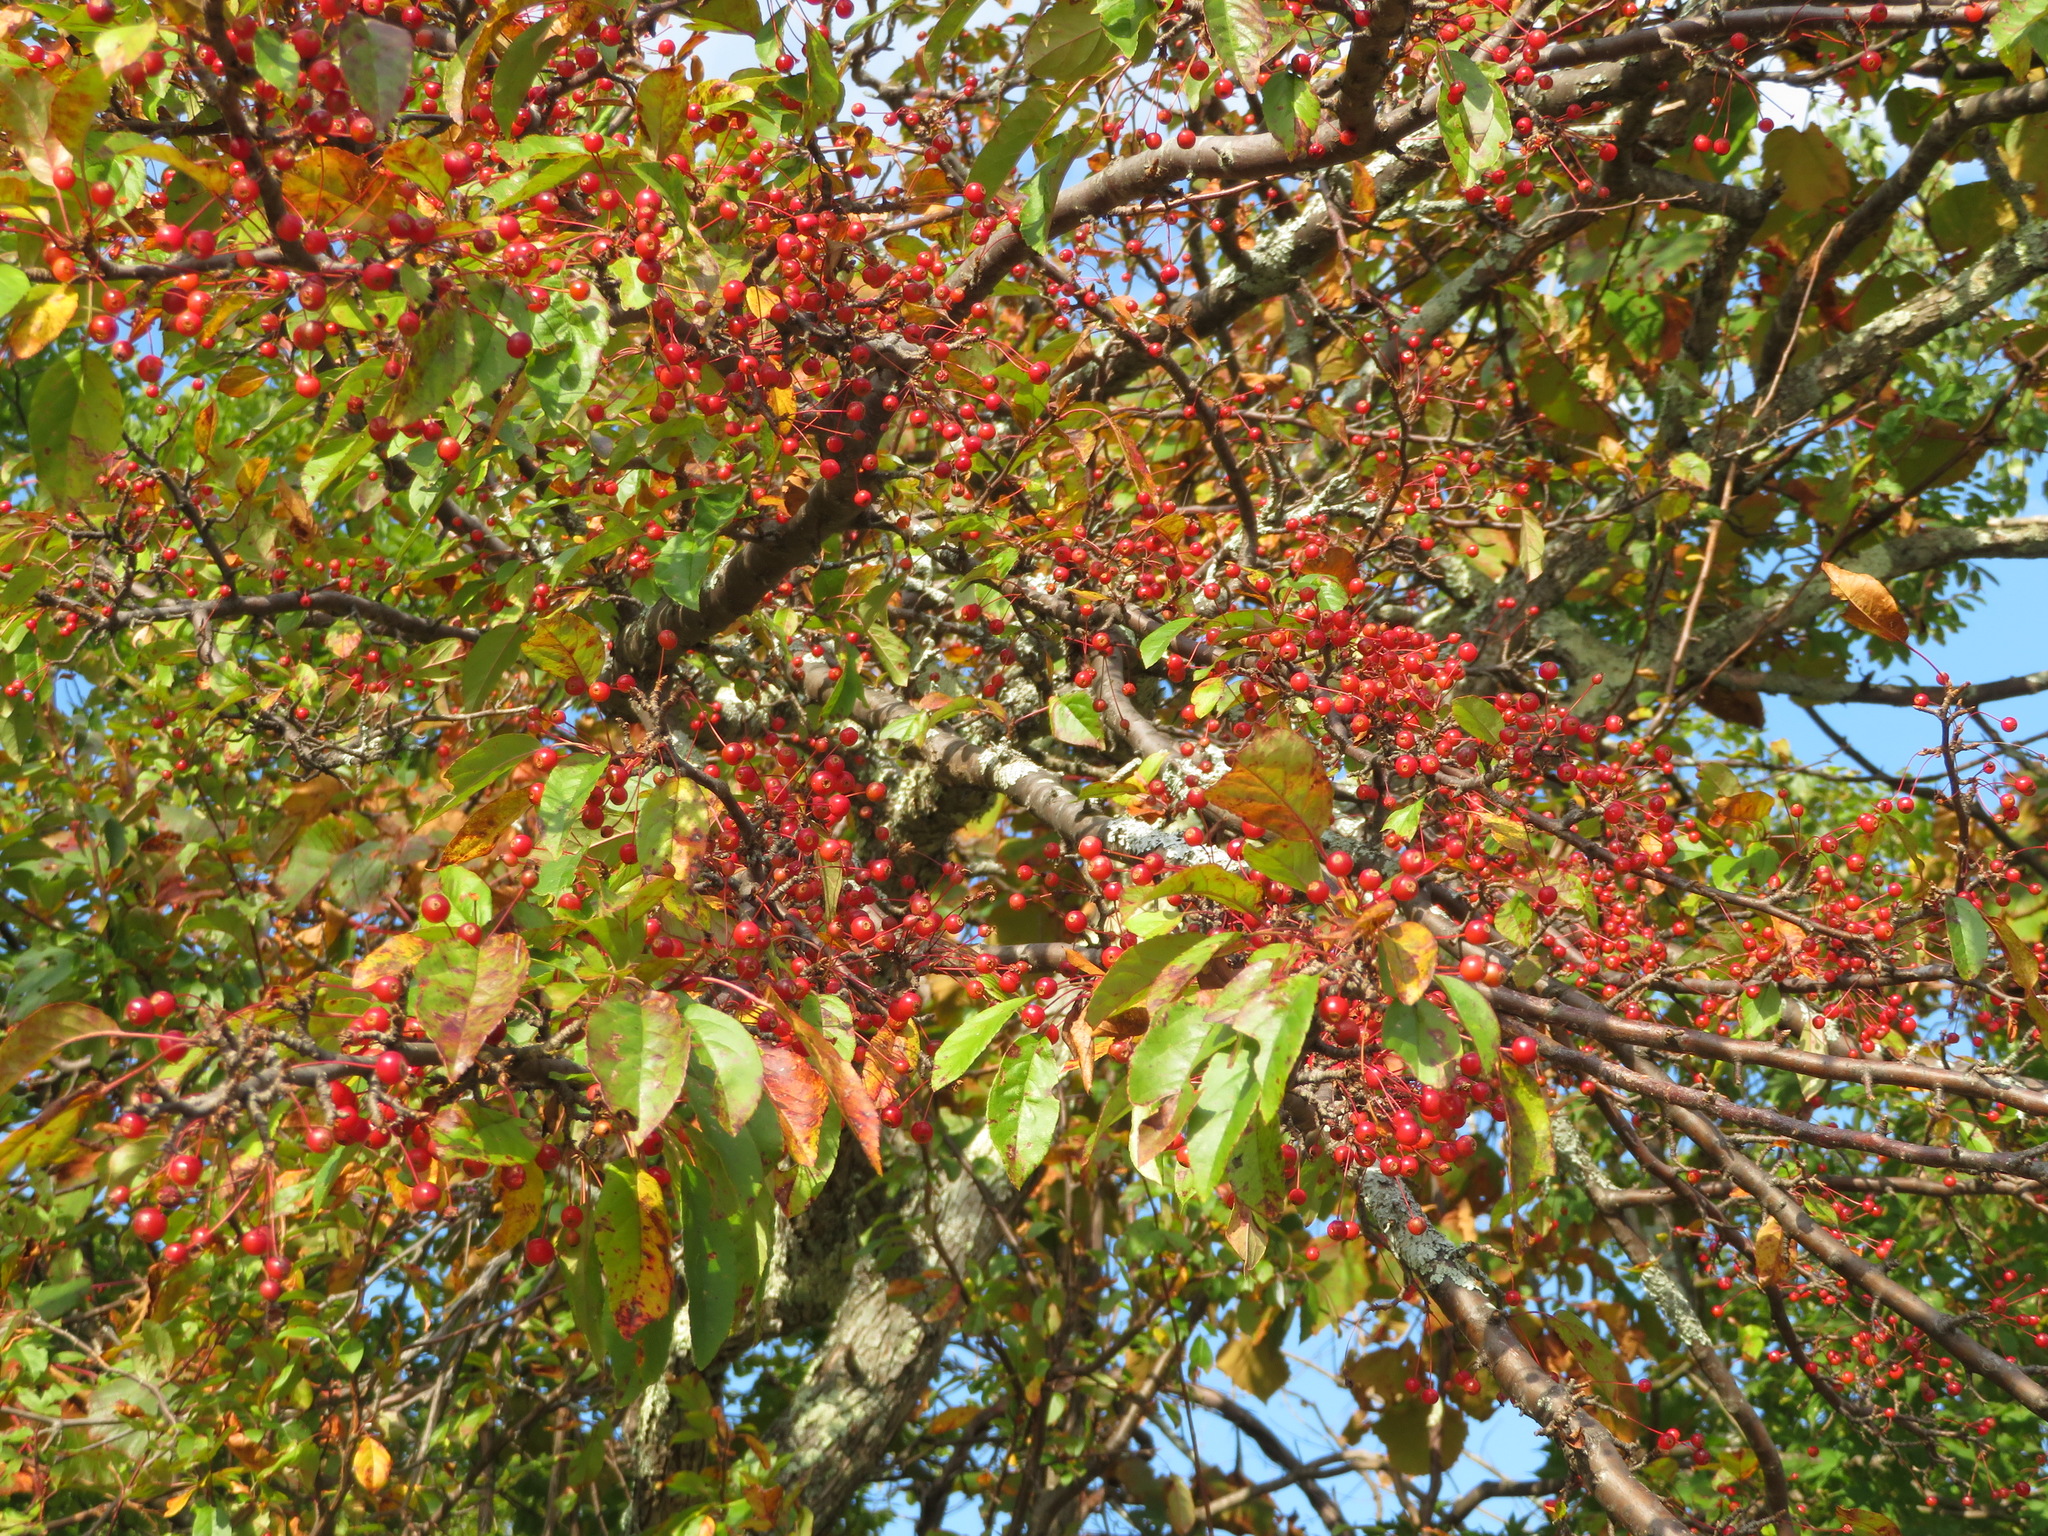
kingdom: Plantae
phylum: Tracheophyta
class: Magnoliopsida
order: Rosales
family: Rosaceae
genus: Malus
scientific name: Malus toringo
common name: Japanese crabapple
